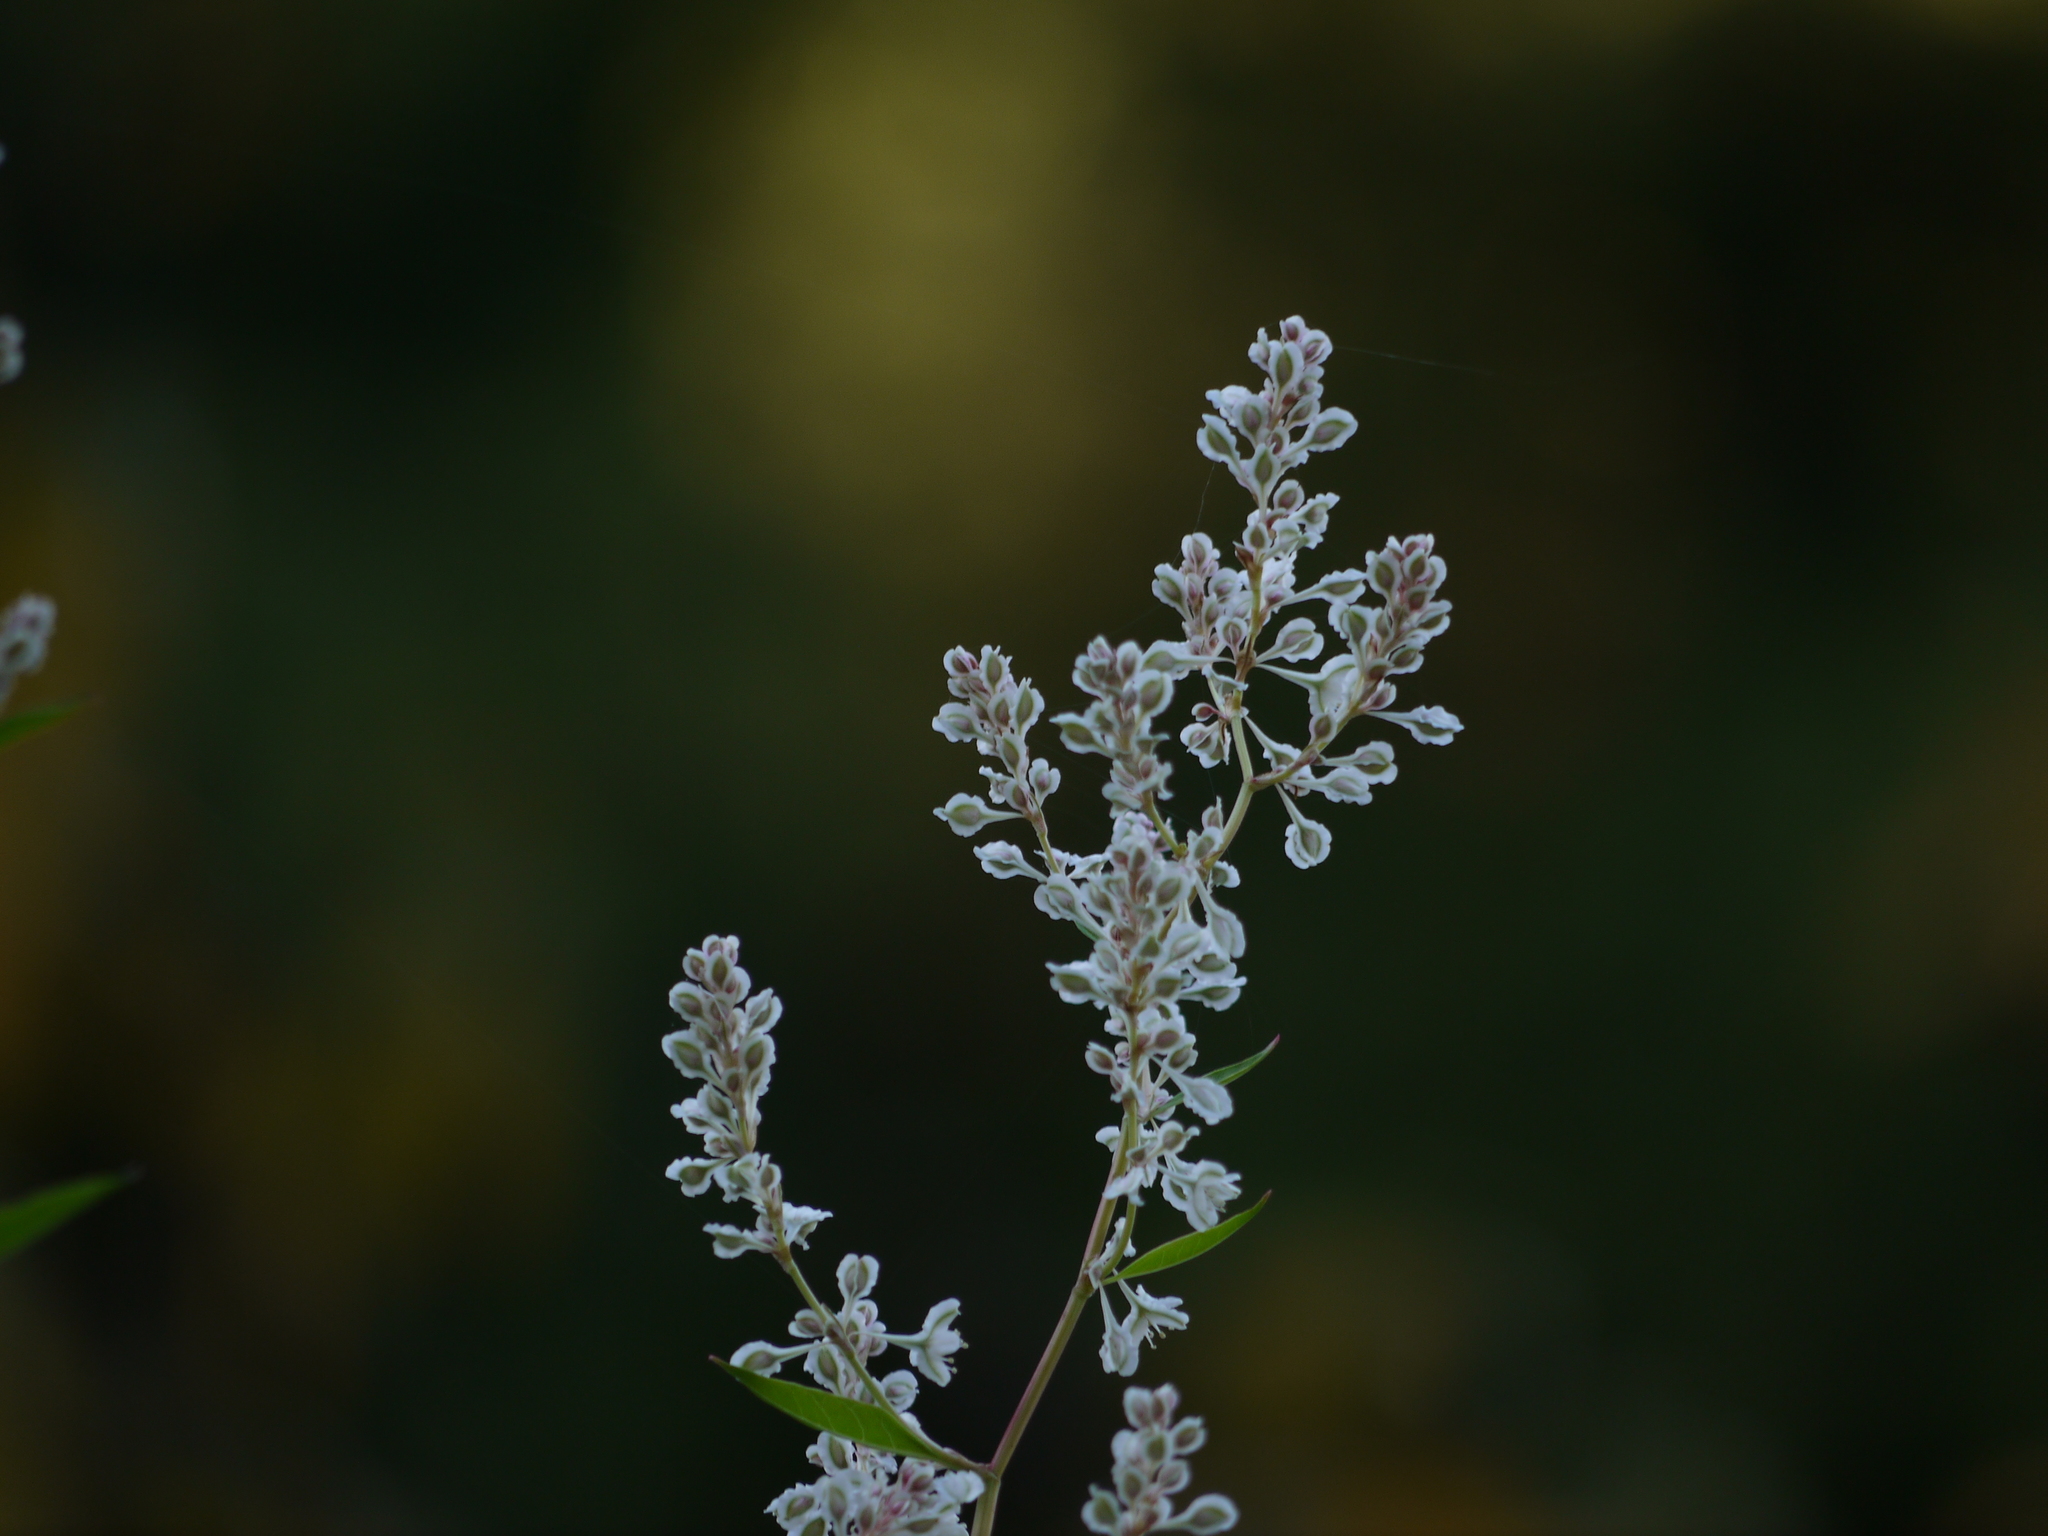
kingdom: Plantae
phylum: Tracheophyta
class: Magnoliopsida
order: Caryophyllales
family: Polygonaceae
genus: Fallopia
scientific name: Fallopia baldschuanica
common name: Russian-vine
